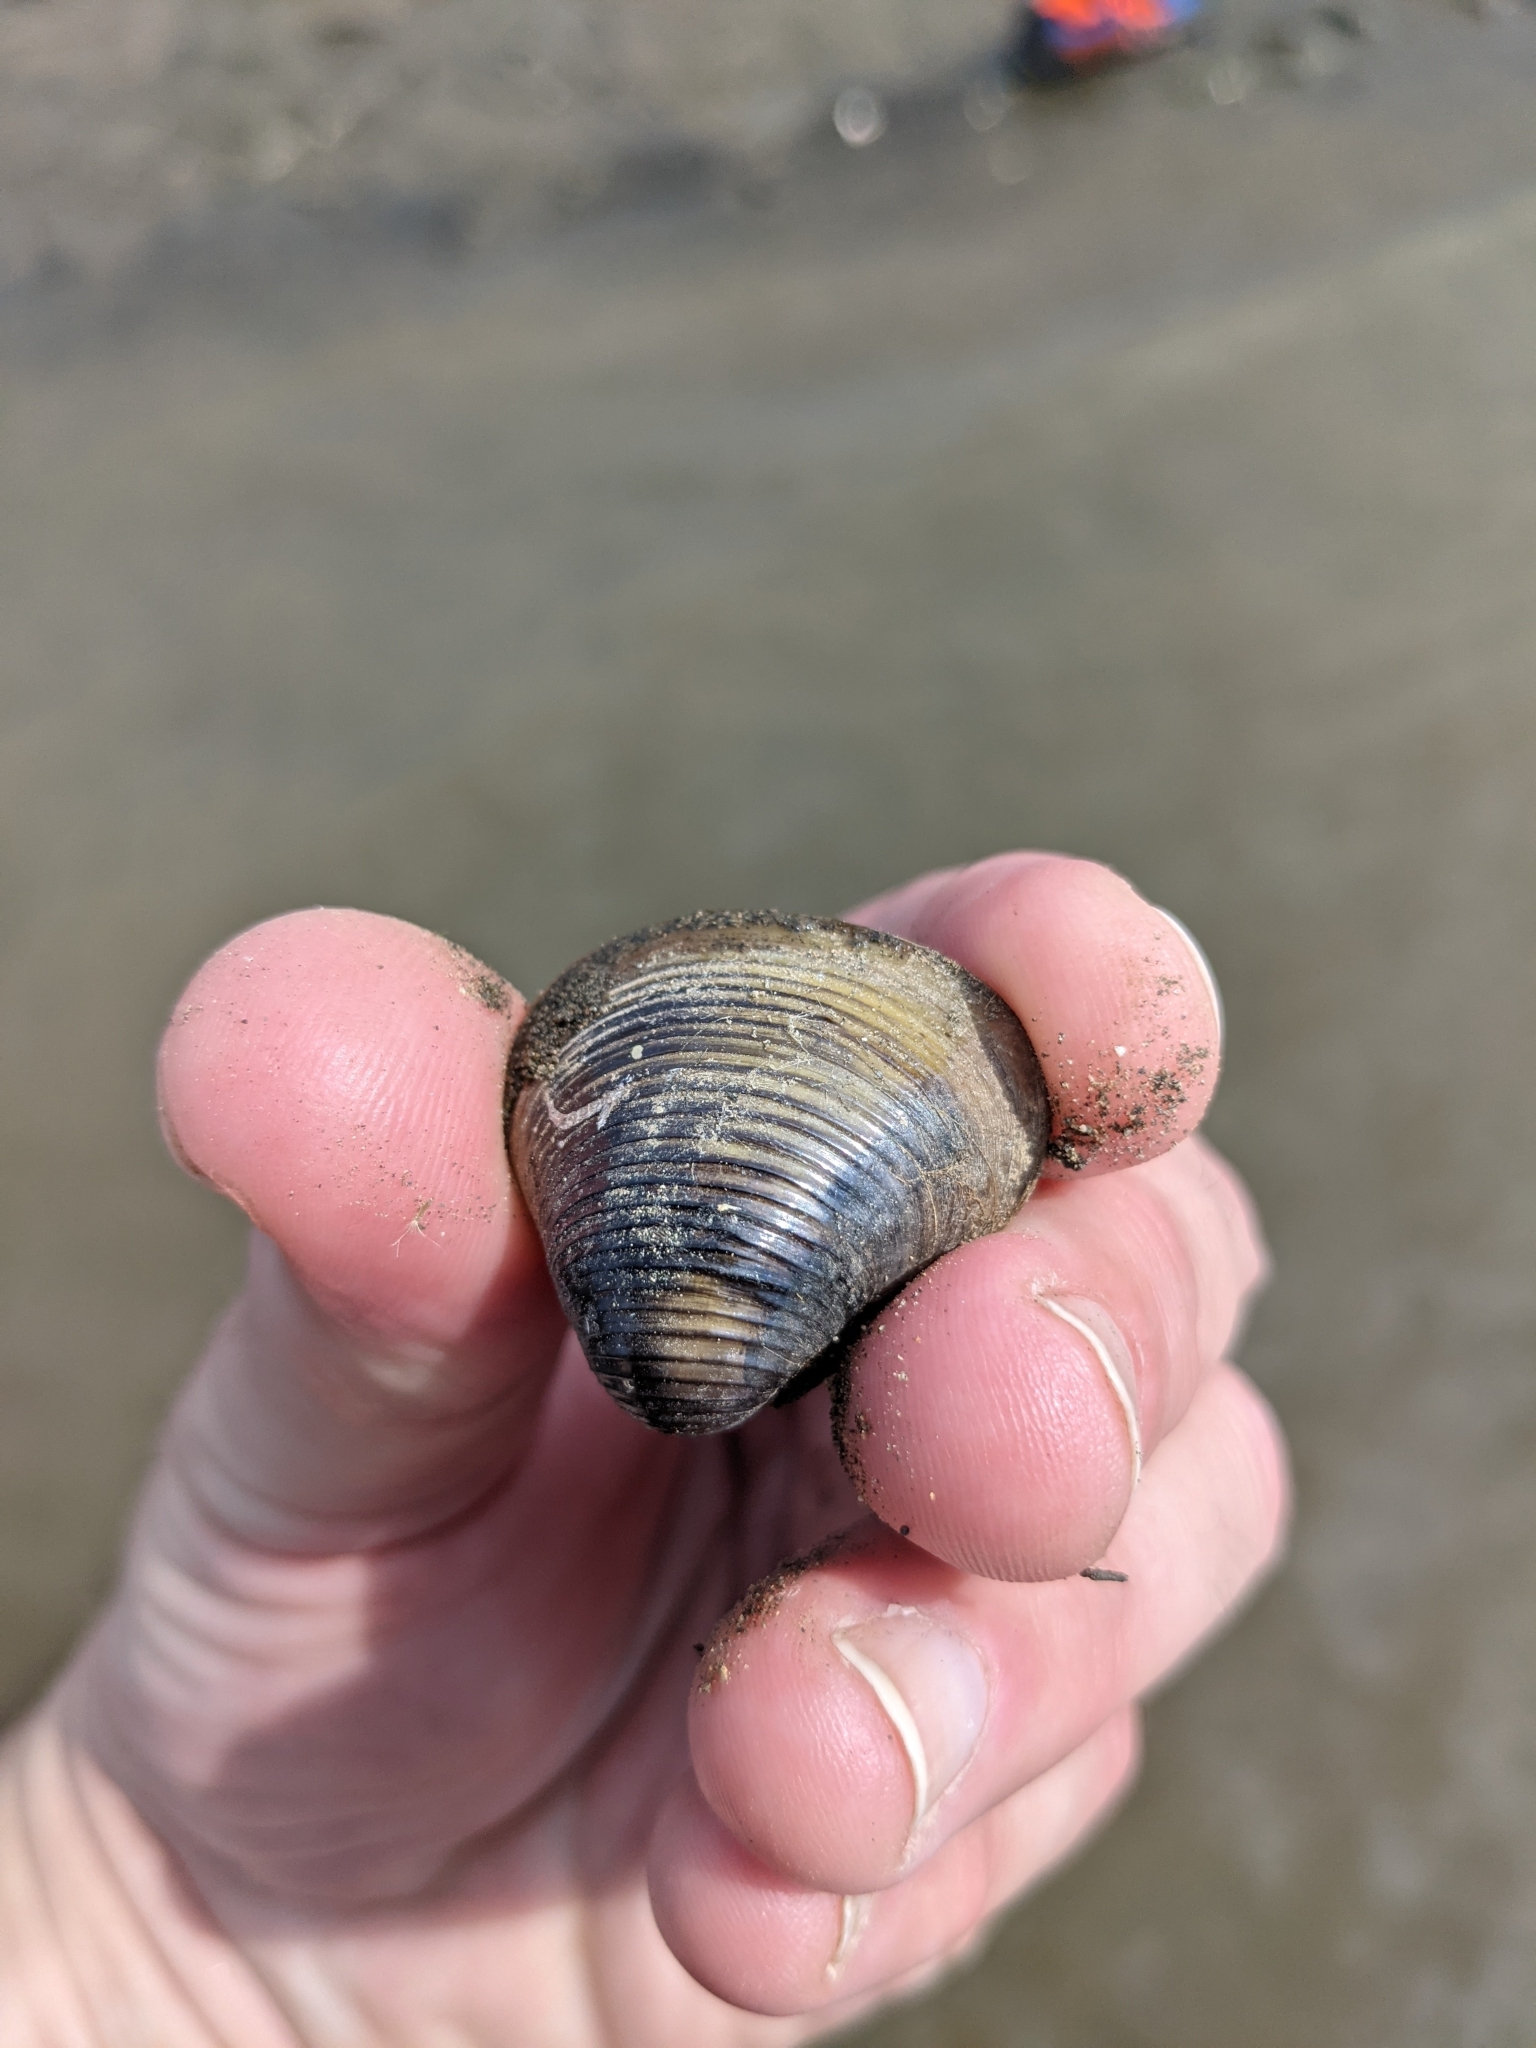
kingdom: Animalia
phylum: Mollusca
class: Bivalvia
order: Venerida
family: Cyrenidae
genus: Corbicula
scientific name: Corbicula fluminea
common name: Asian clam
